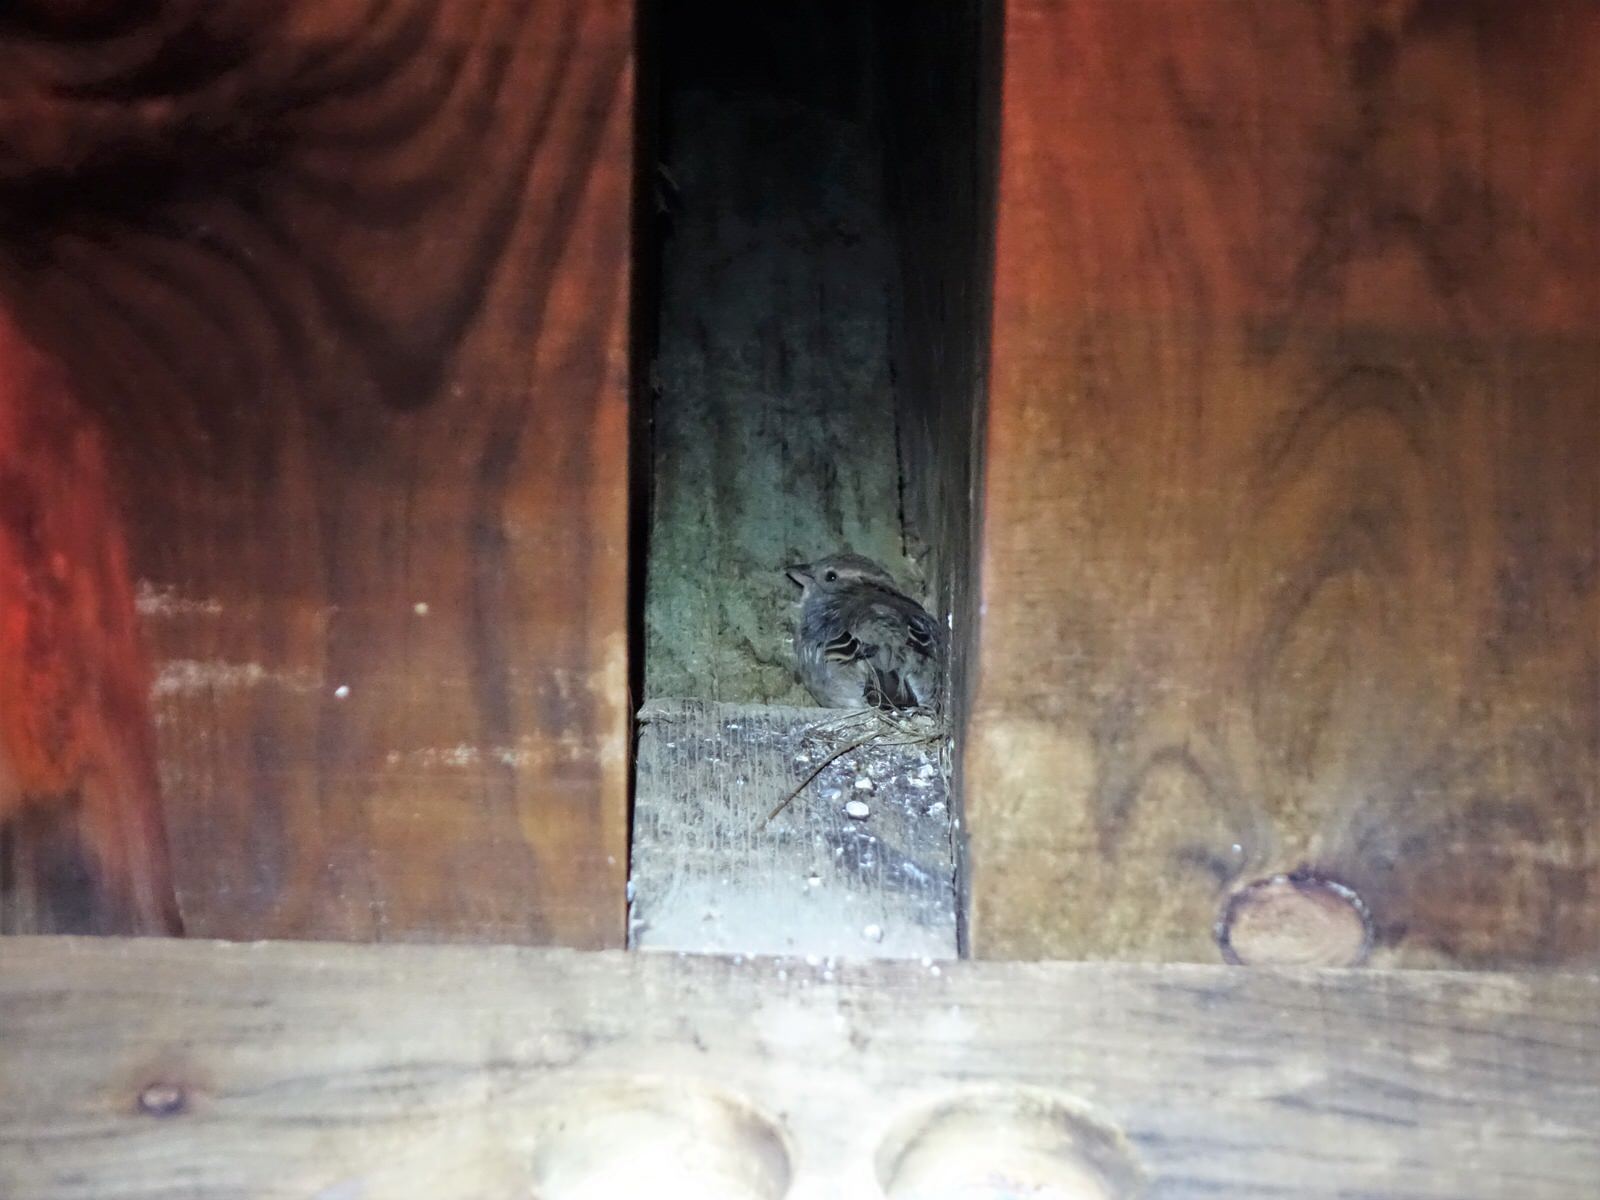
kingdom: Animalia
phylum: Chordata
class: Aves
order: Passeriformes
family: Passeridae
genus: Passer
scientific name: Passer domesticus
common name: House sparrow
